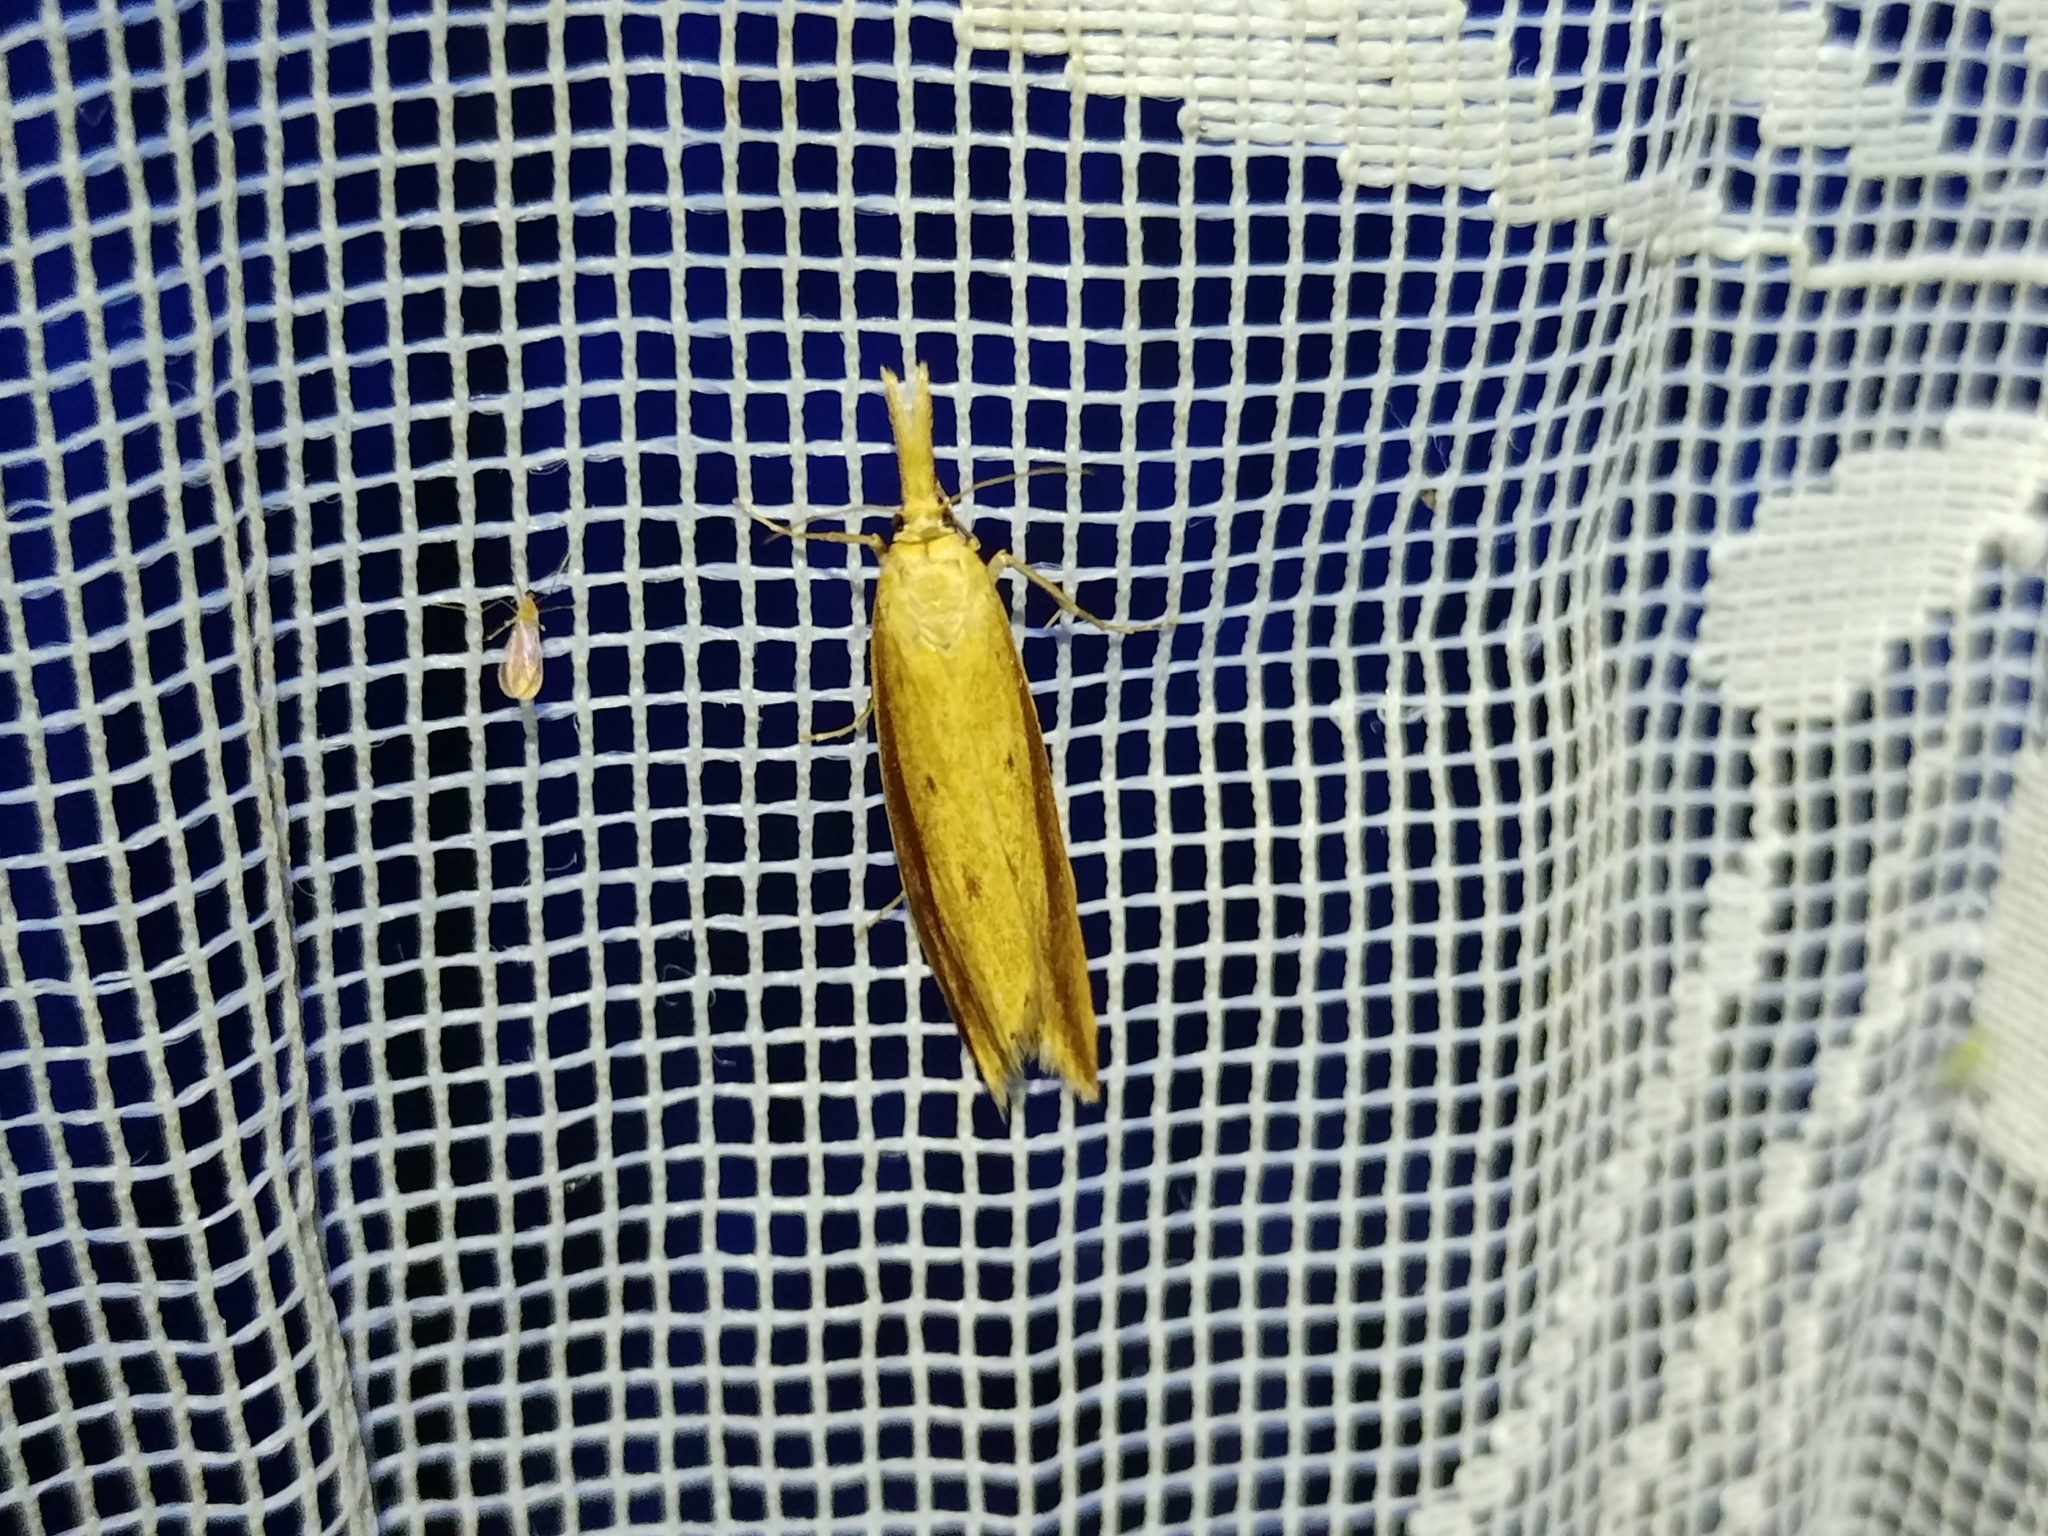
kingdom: Animalia
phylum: Arthropoda
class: Insecta
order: Lepidoptera
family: Crambidae
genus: Donacaula
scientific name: Donacaula forficella
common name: Pale water-veneer
